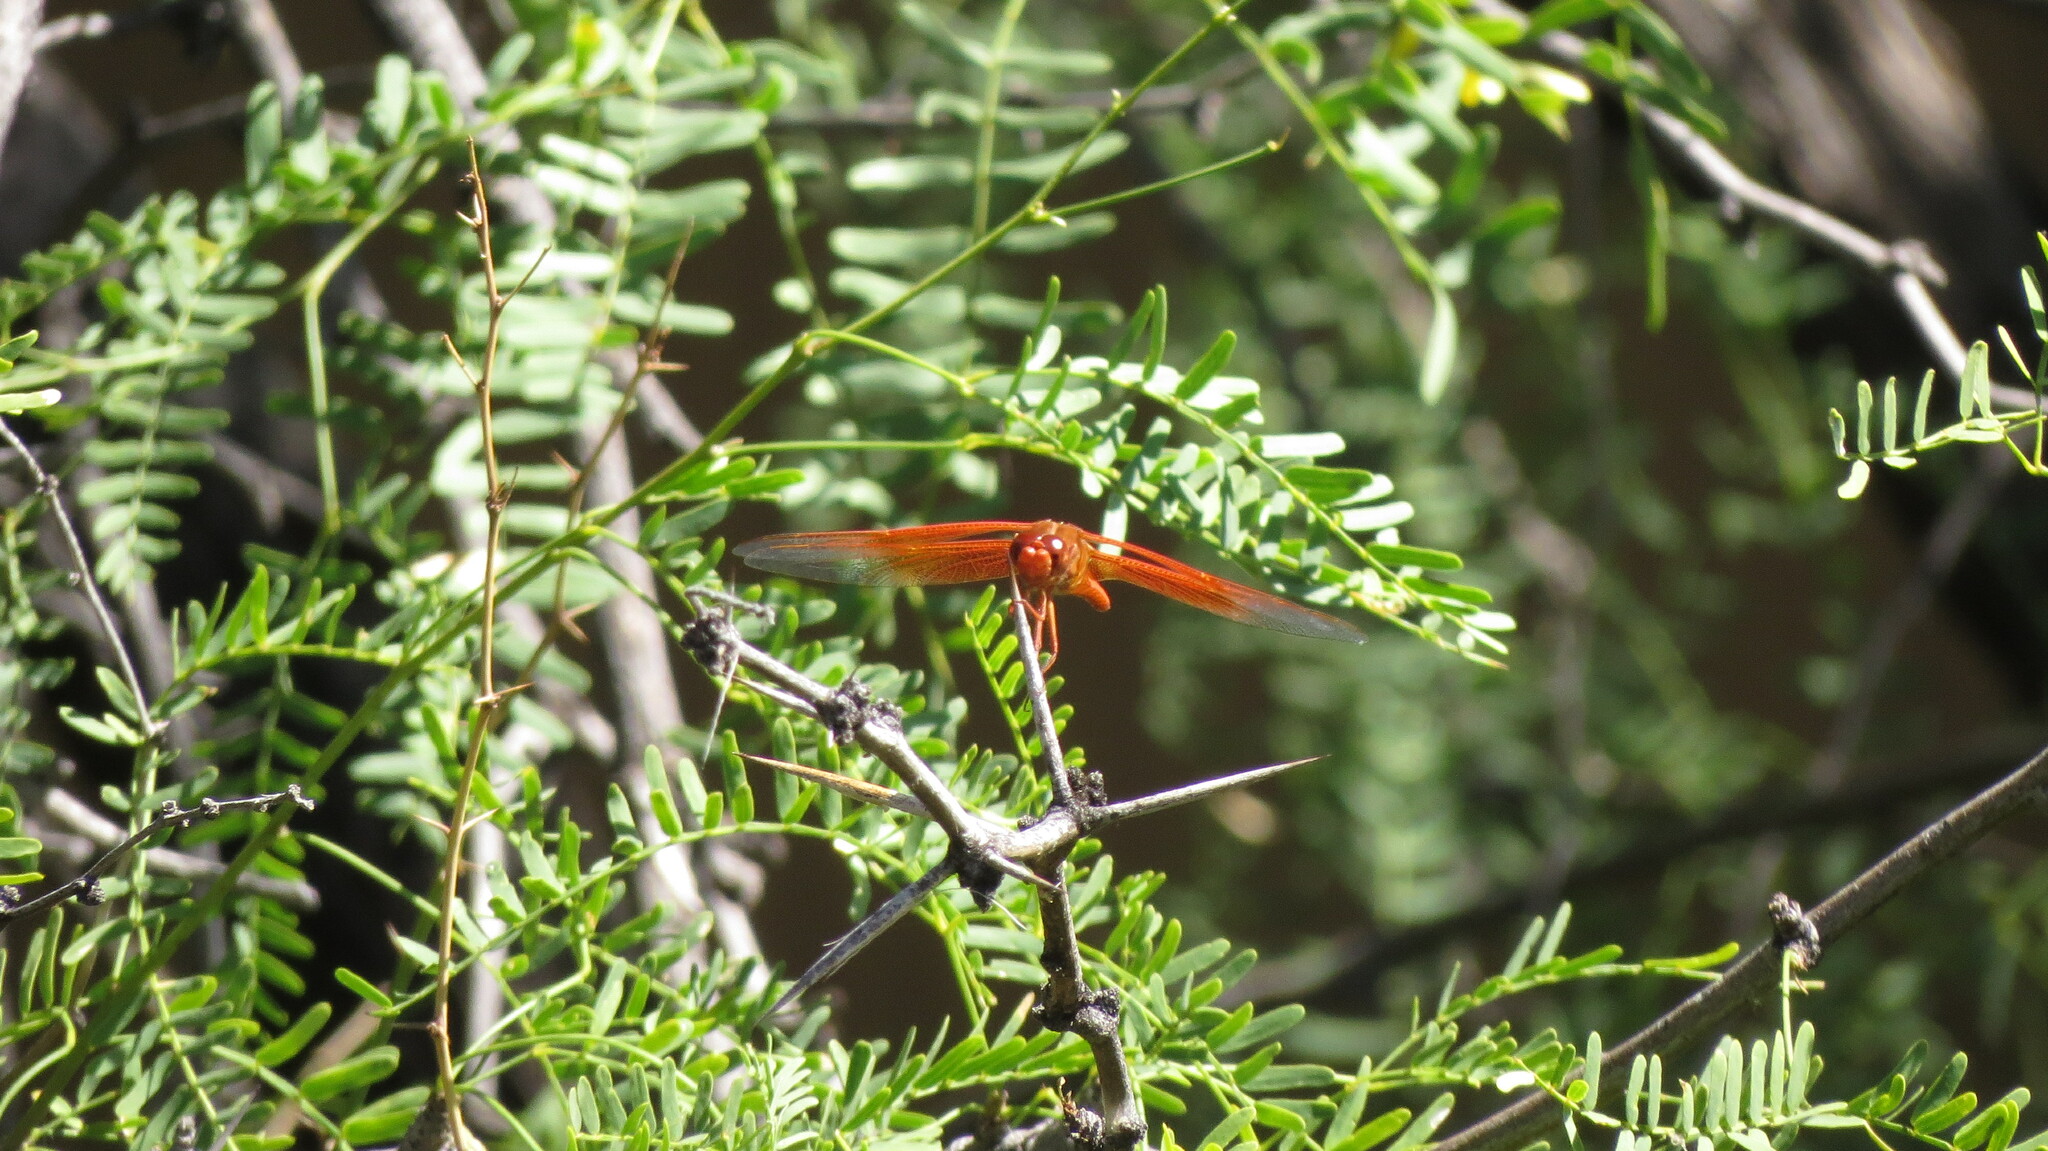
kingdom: Animalia
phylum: Arthropoda
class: Insecta
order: Odonata
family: Libellulidae
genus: Libellula
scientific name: Libellula saturata
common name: Flame skimmer
